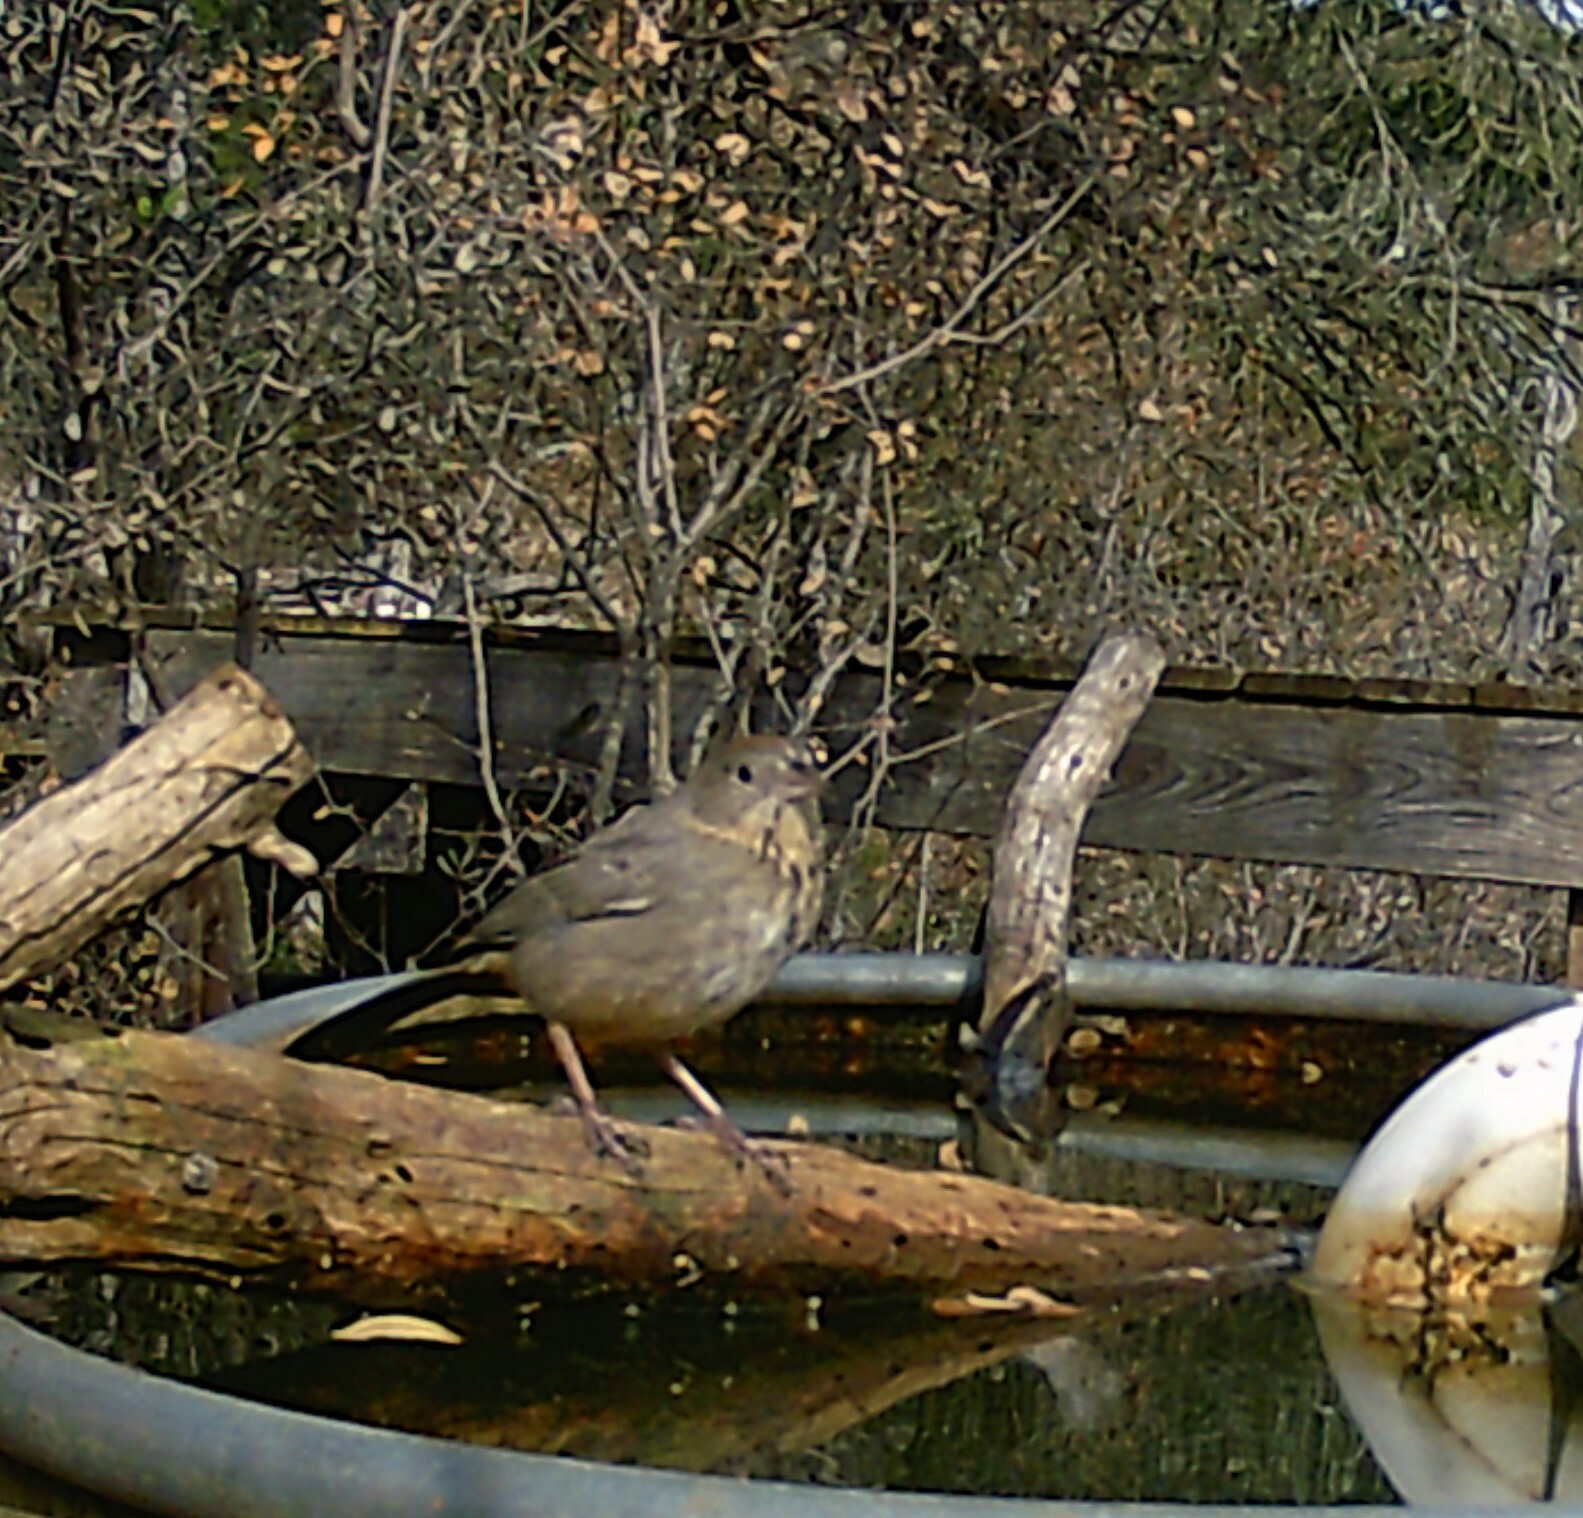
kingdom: Animalia
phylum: Chordata
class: Aves
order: Passeriformes
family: Passerellidae
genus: Melozone
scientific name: Melozone fusca
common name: Canyon towhee
